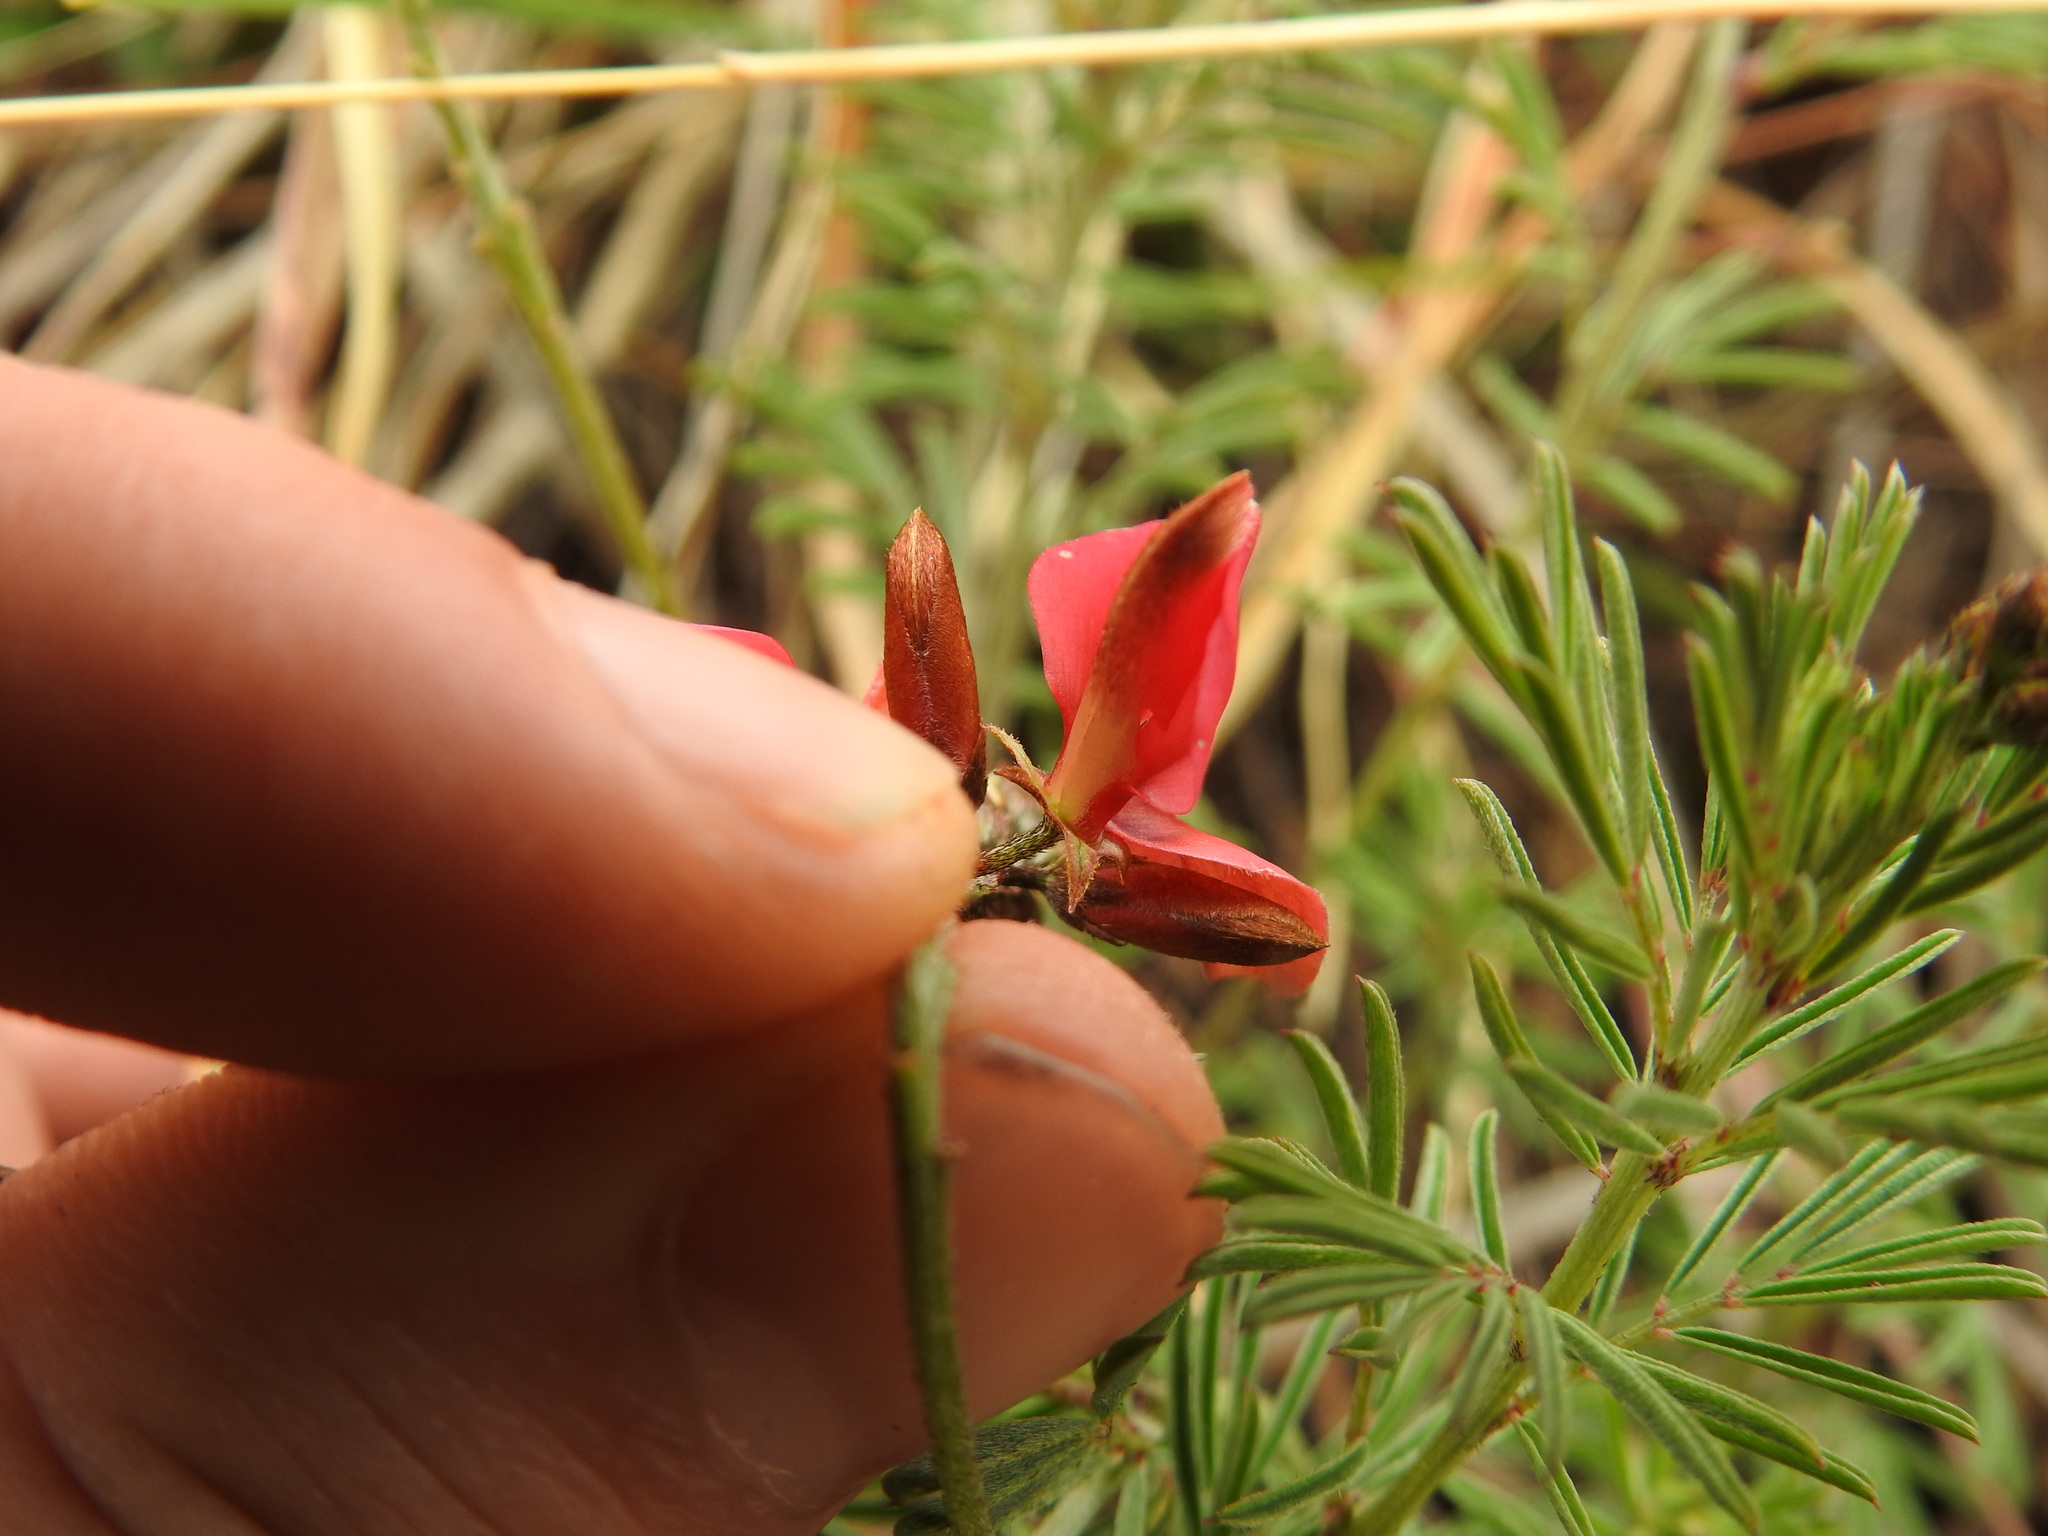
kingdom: Plantae
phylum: Tracheophyta
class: Magnoliopsida
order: Fabales
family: Fabaceae
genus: Indigofera
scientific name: Indigofera hedyantha
